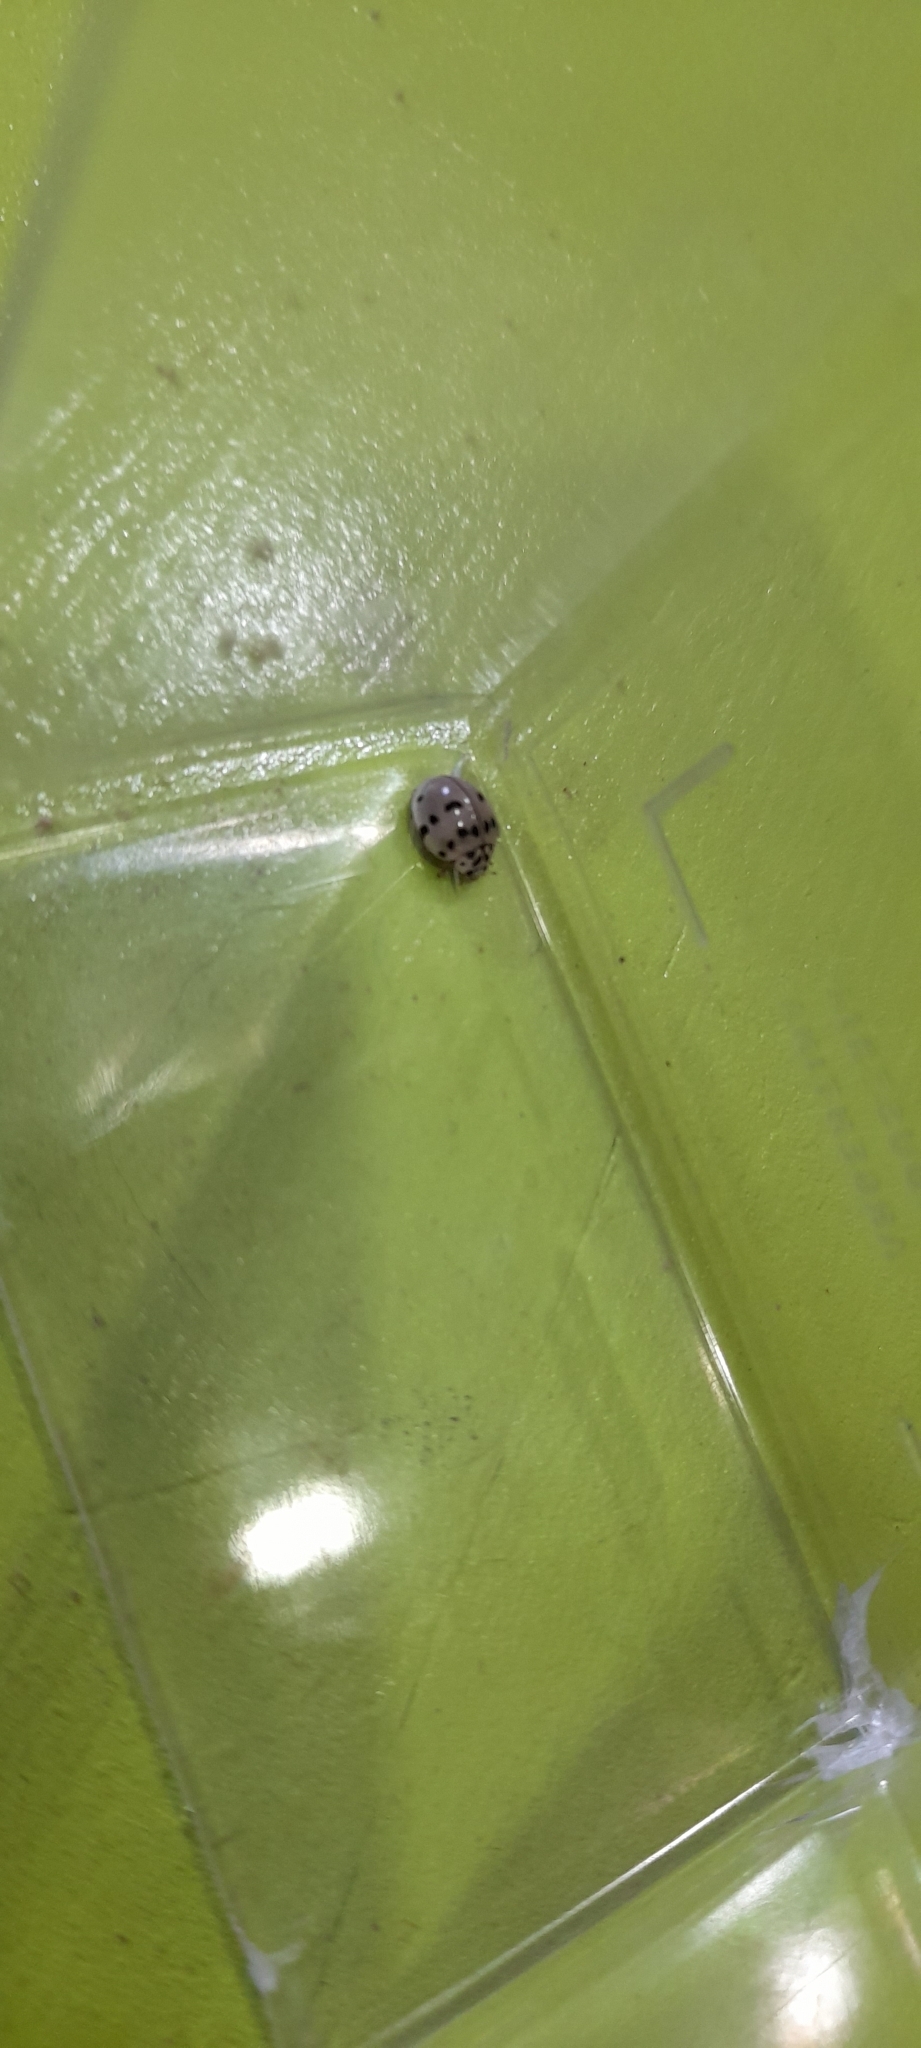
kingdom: Animalia
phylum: Arthropoda
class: Insecta
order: Coleoptera
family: Coccinellidae
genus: Olla
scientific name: Olla v-nigrum
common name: Ashy gray lady beetle
